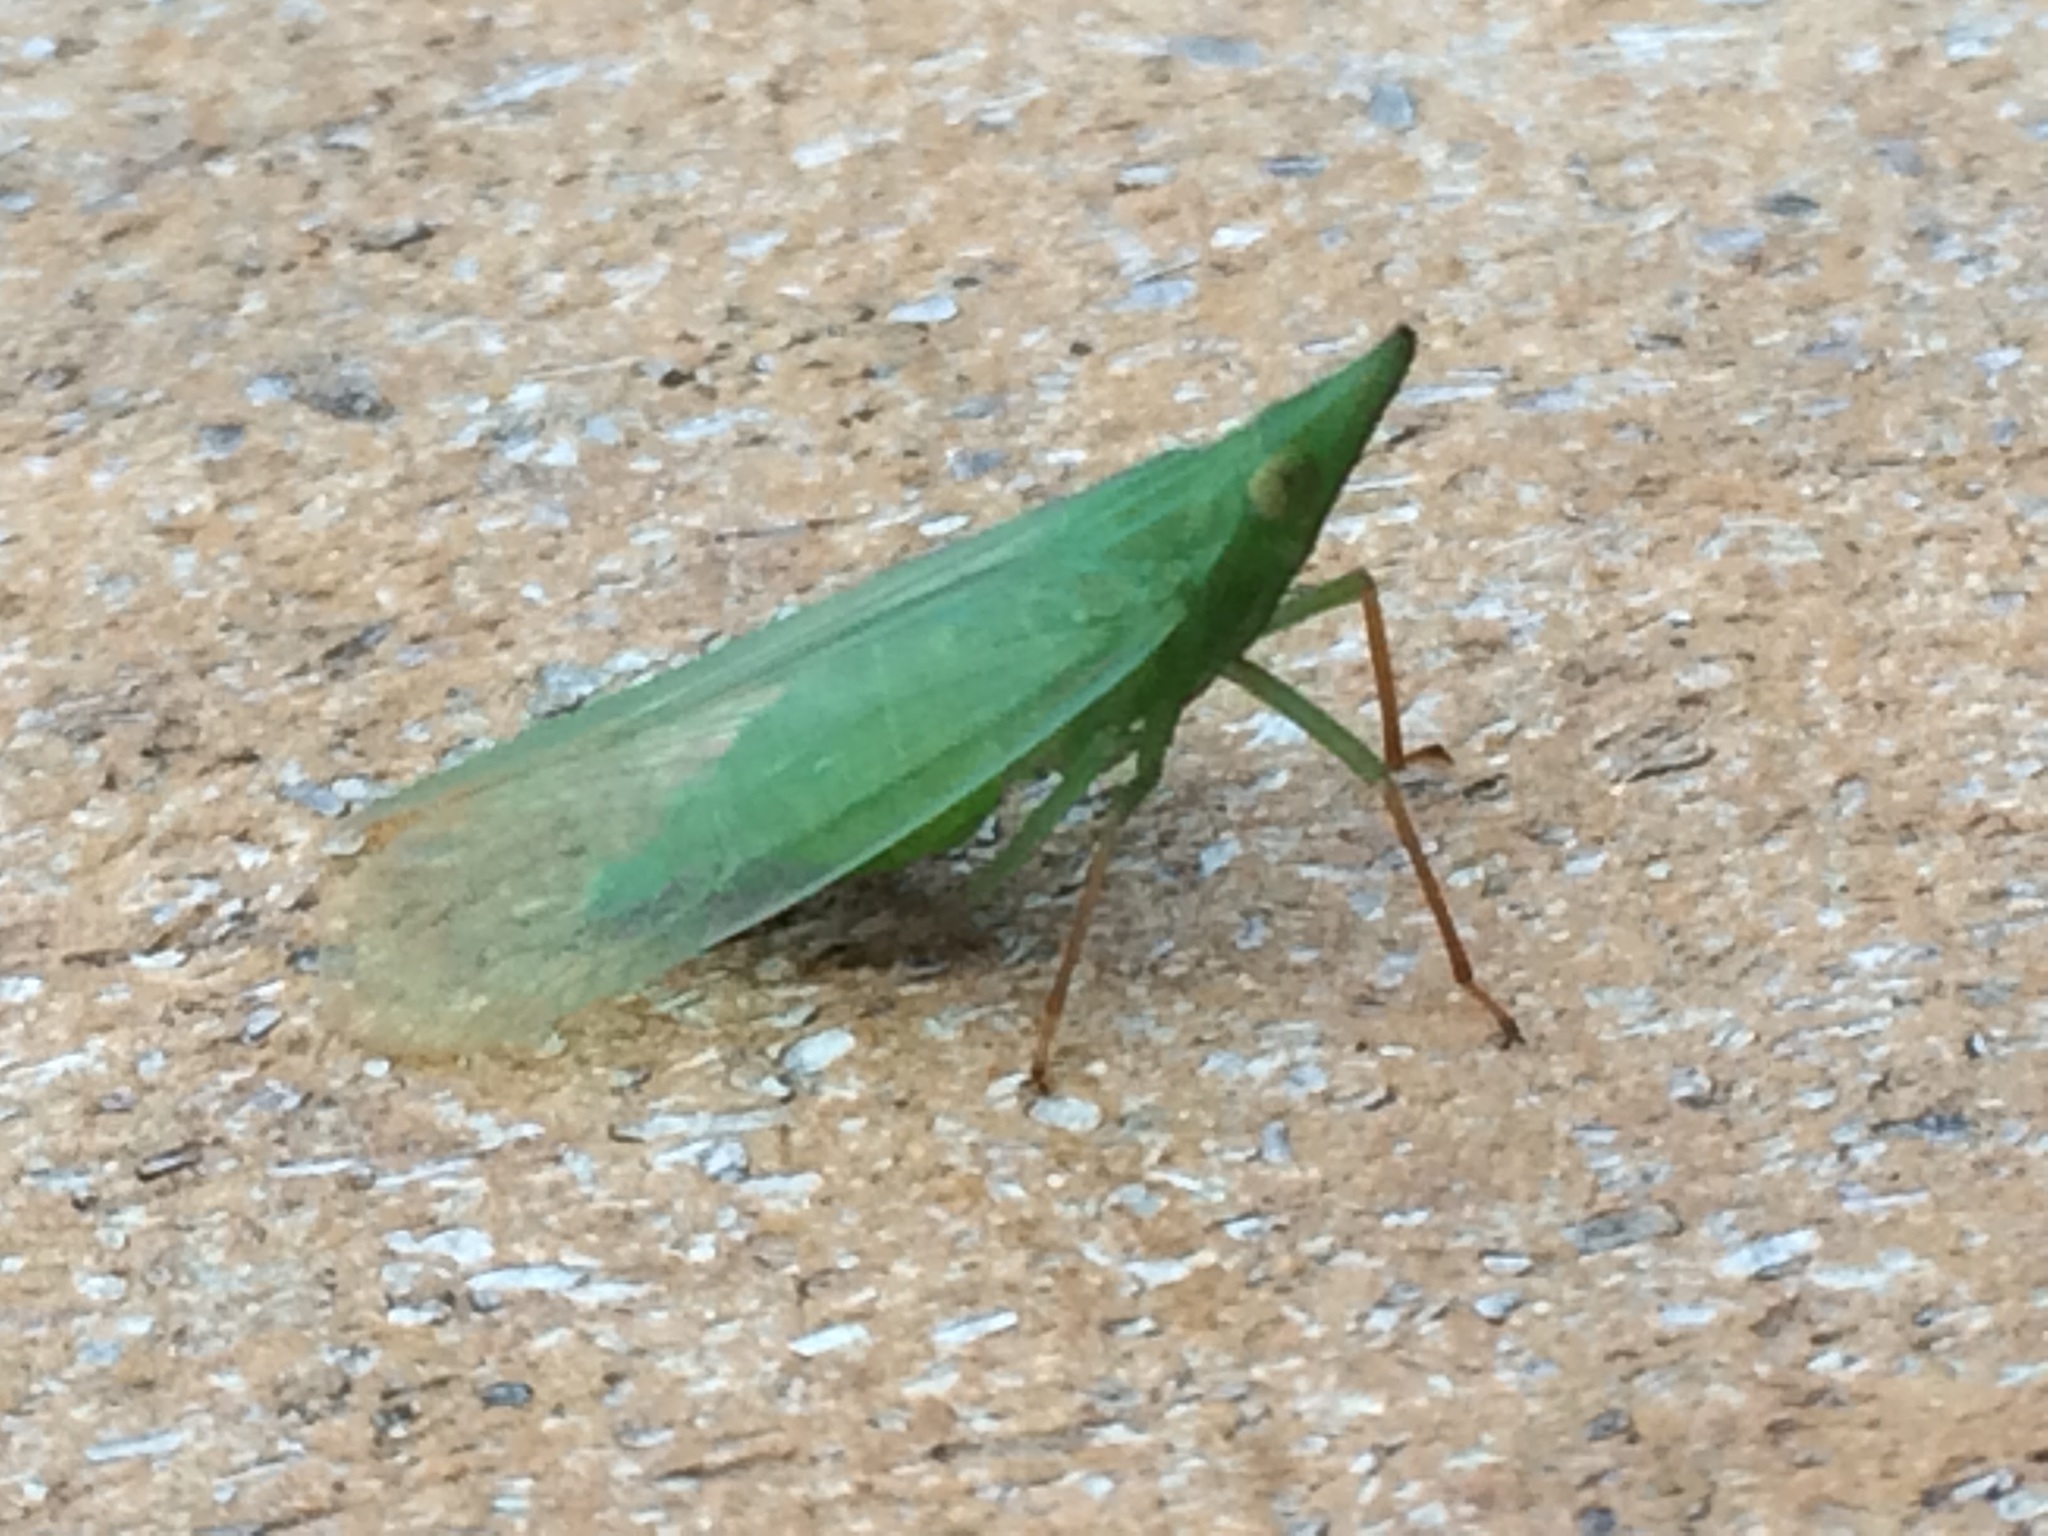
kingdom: Animalia
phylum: Arthropoda
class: Insecta
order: Hemiptera
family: Dictyopharidae
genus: Rhynchomitra
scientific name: Rhynchomitra microrhina
